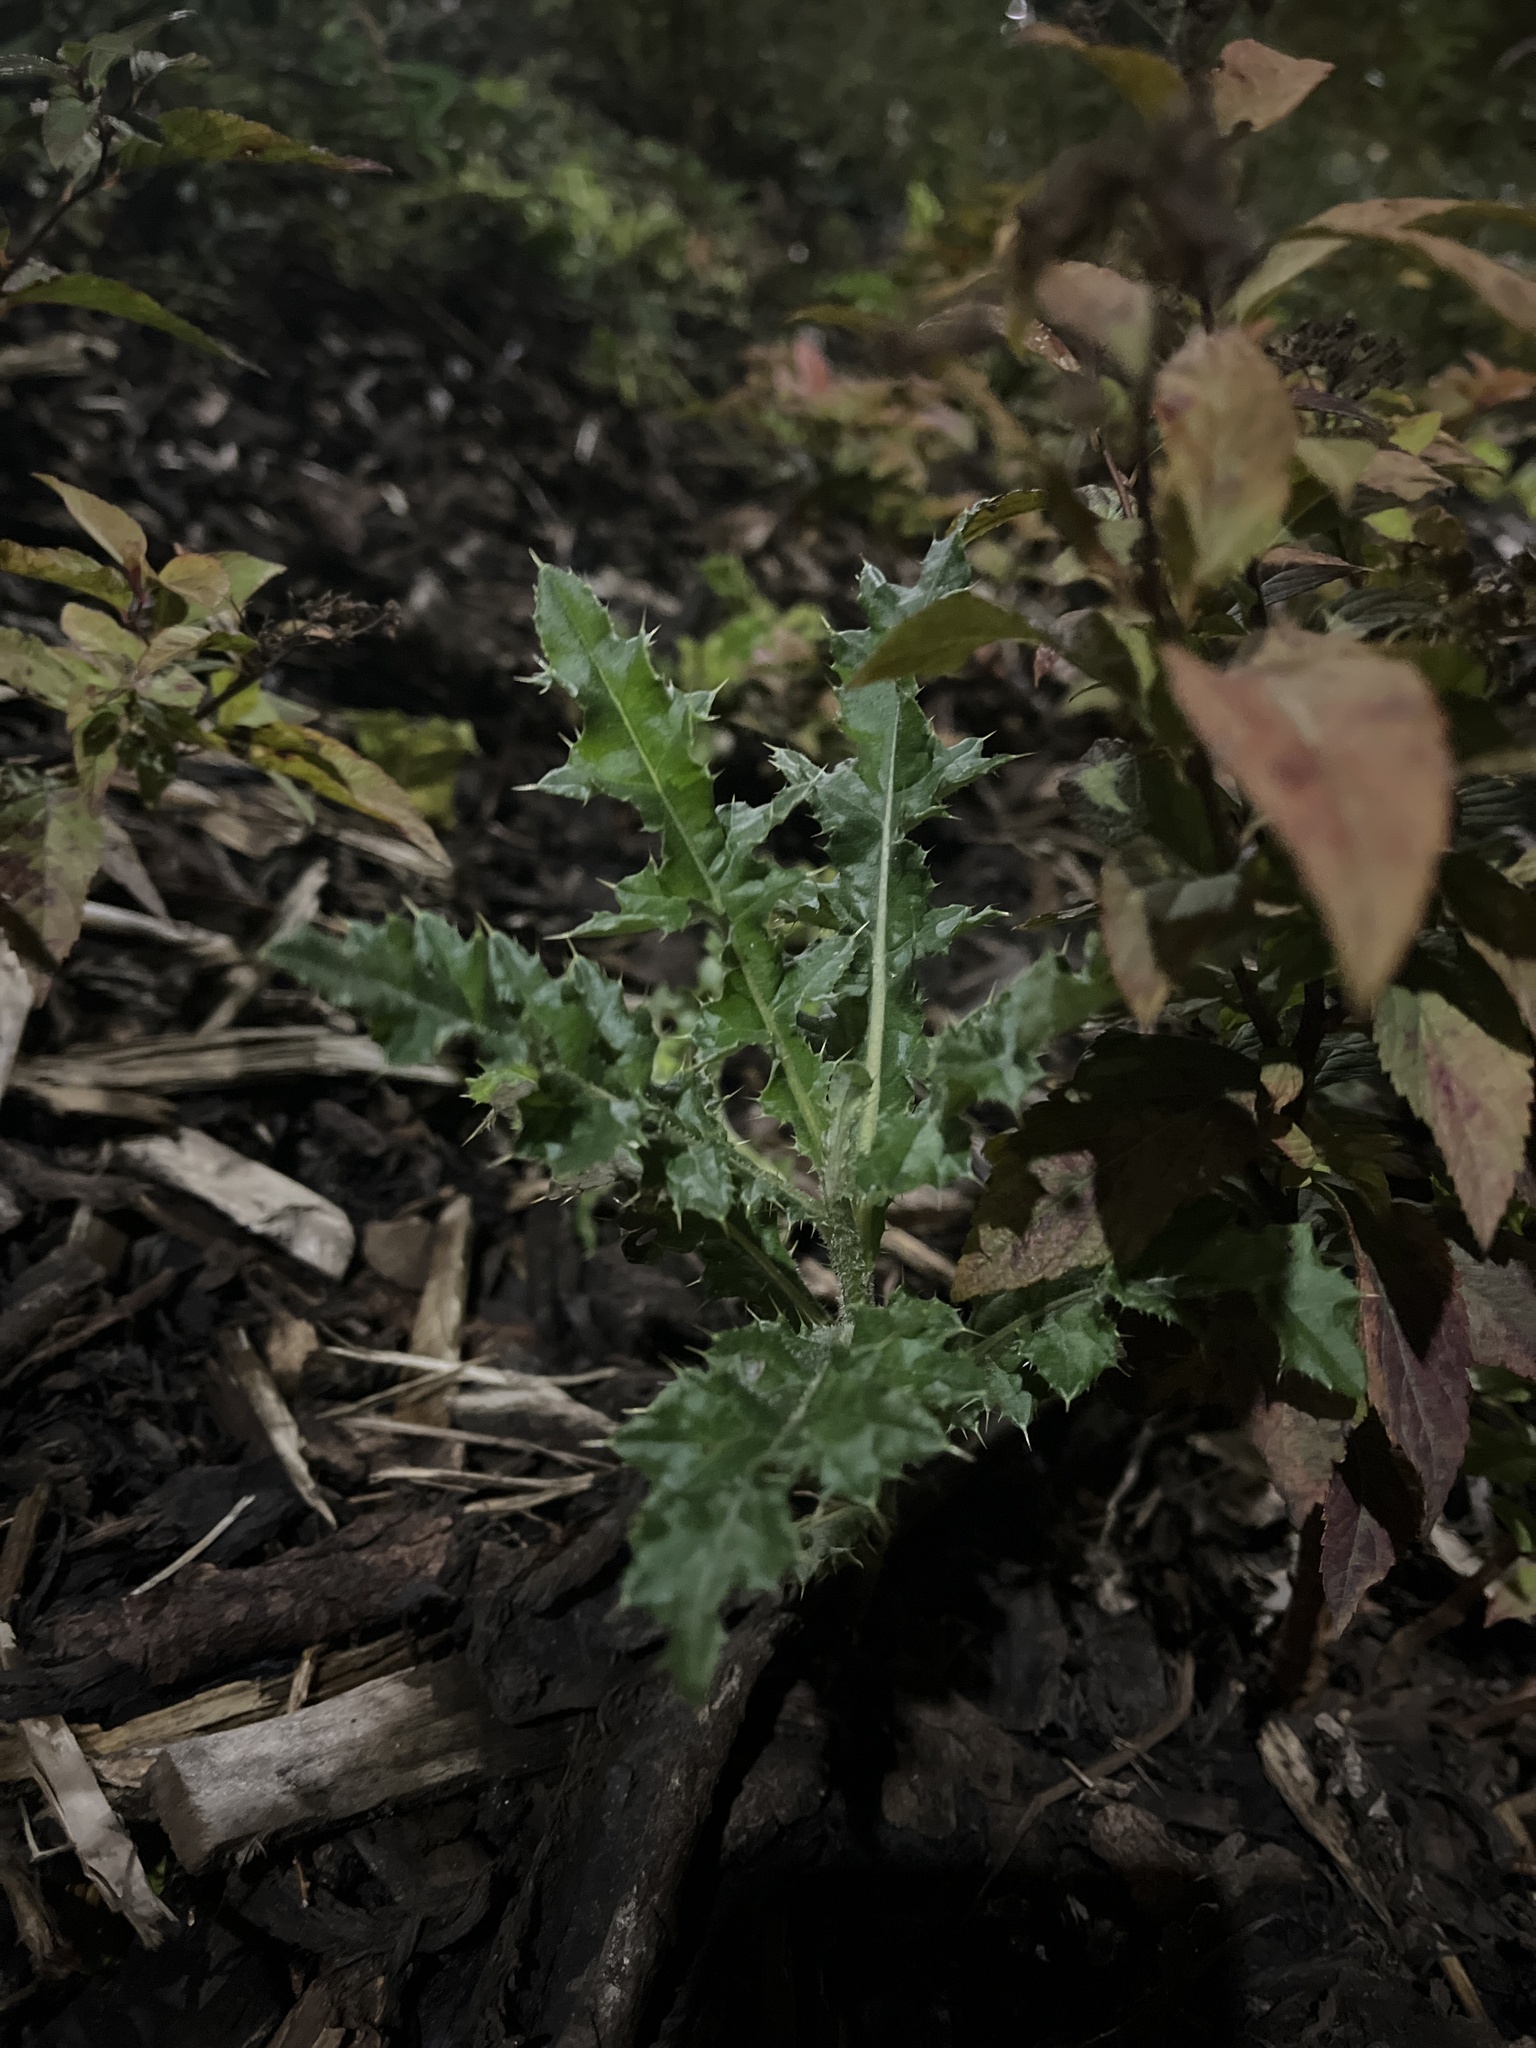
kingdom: Plantae
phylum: Tracheophyta
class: Magnoliopsida
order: Asterales
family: Asteraceae
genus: Cirsium
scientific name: Cirsium arvense
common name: Creeping thistle
